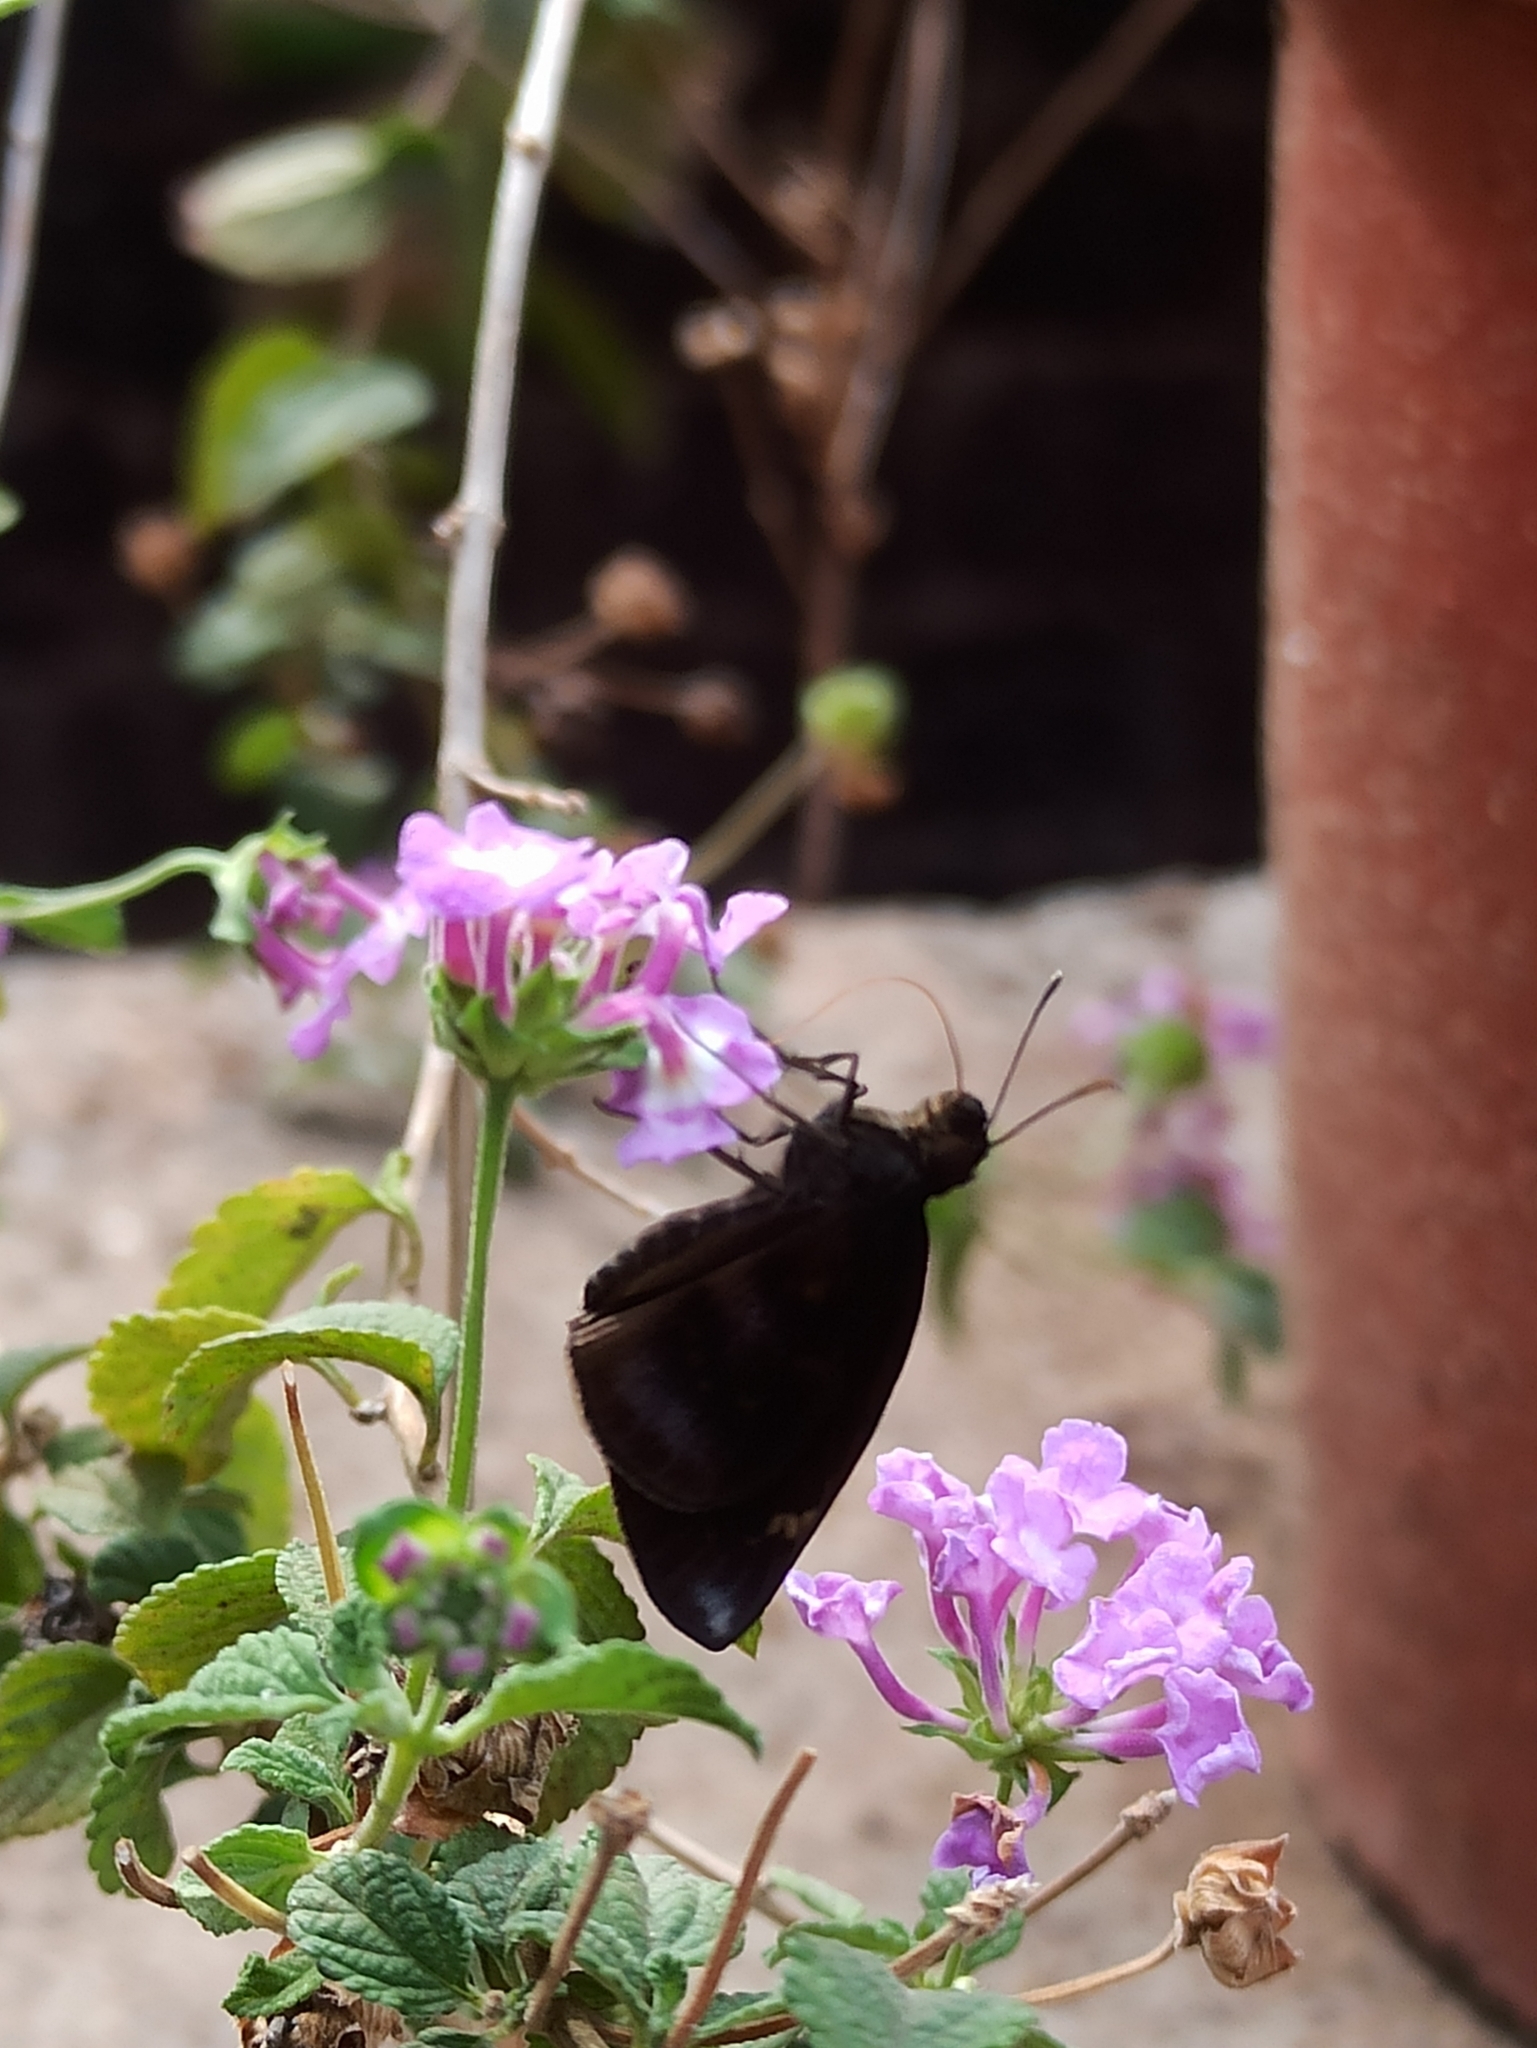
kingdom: Animalia
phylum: Arthropoda
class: Insecta
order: Lepidoptera
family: Hesperiidae
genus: Gangara
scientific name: Gangara thyrsis
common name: Giant redeye
